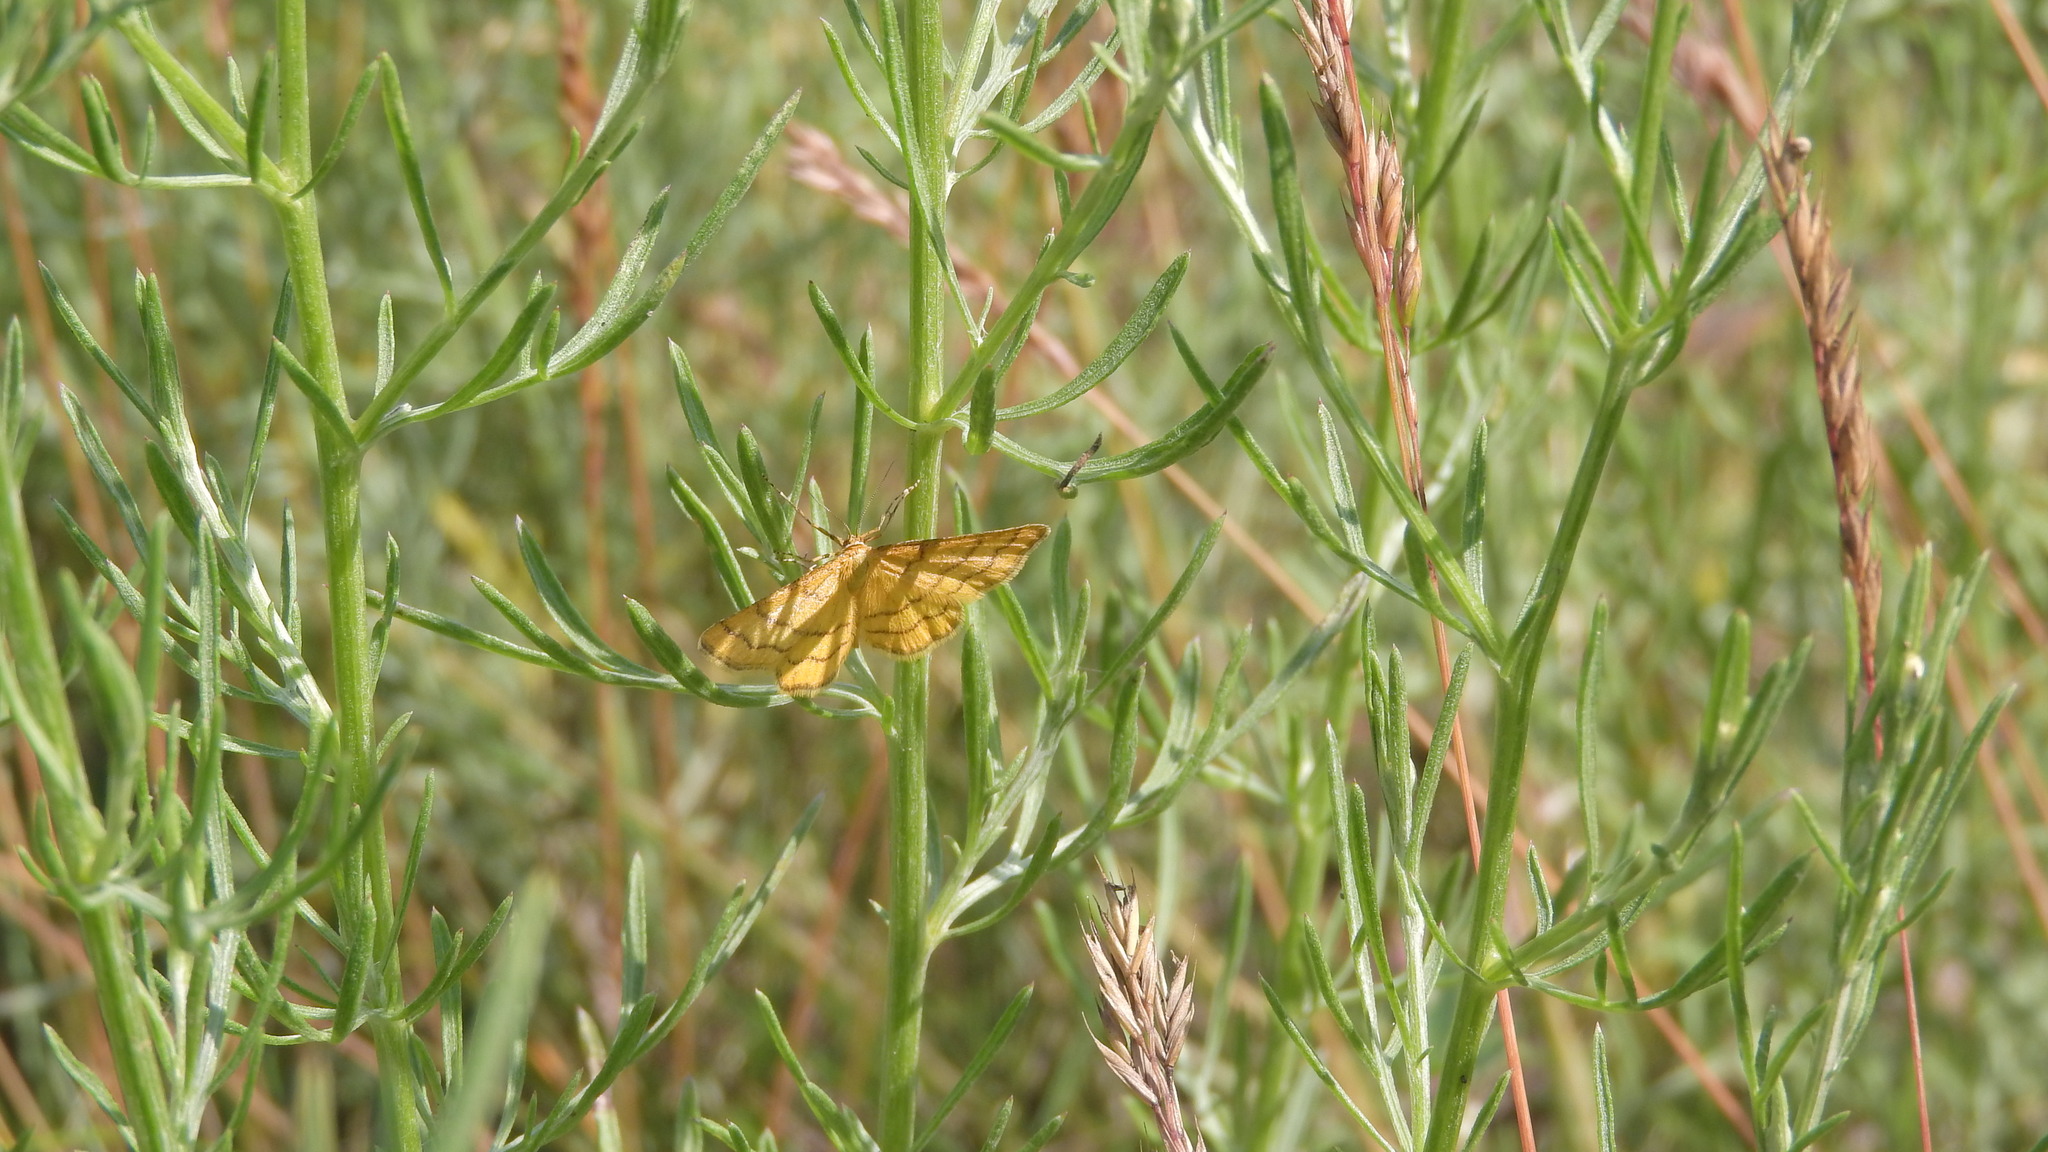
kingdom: Animalia
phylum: Arthropoda
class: Insecta
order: Lepidoptera
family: Geometridae
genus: Idaea
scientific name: Idaea aureolaria
